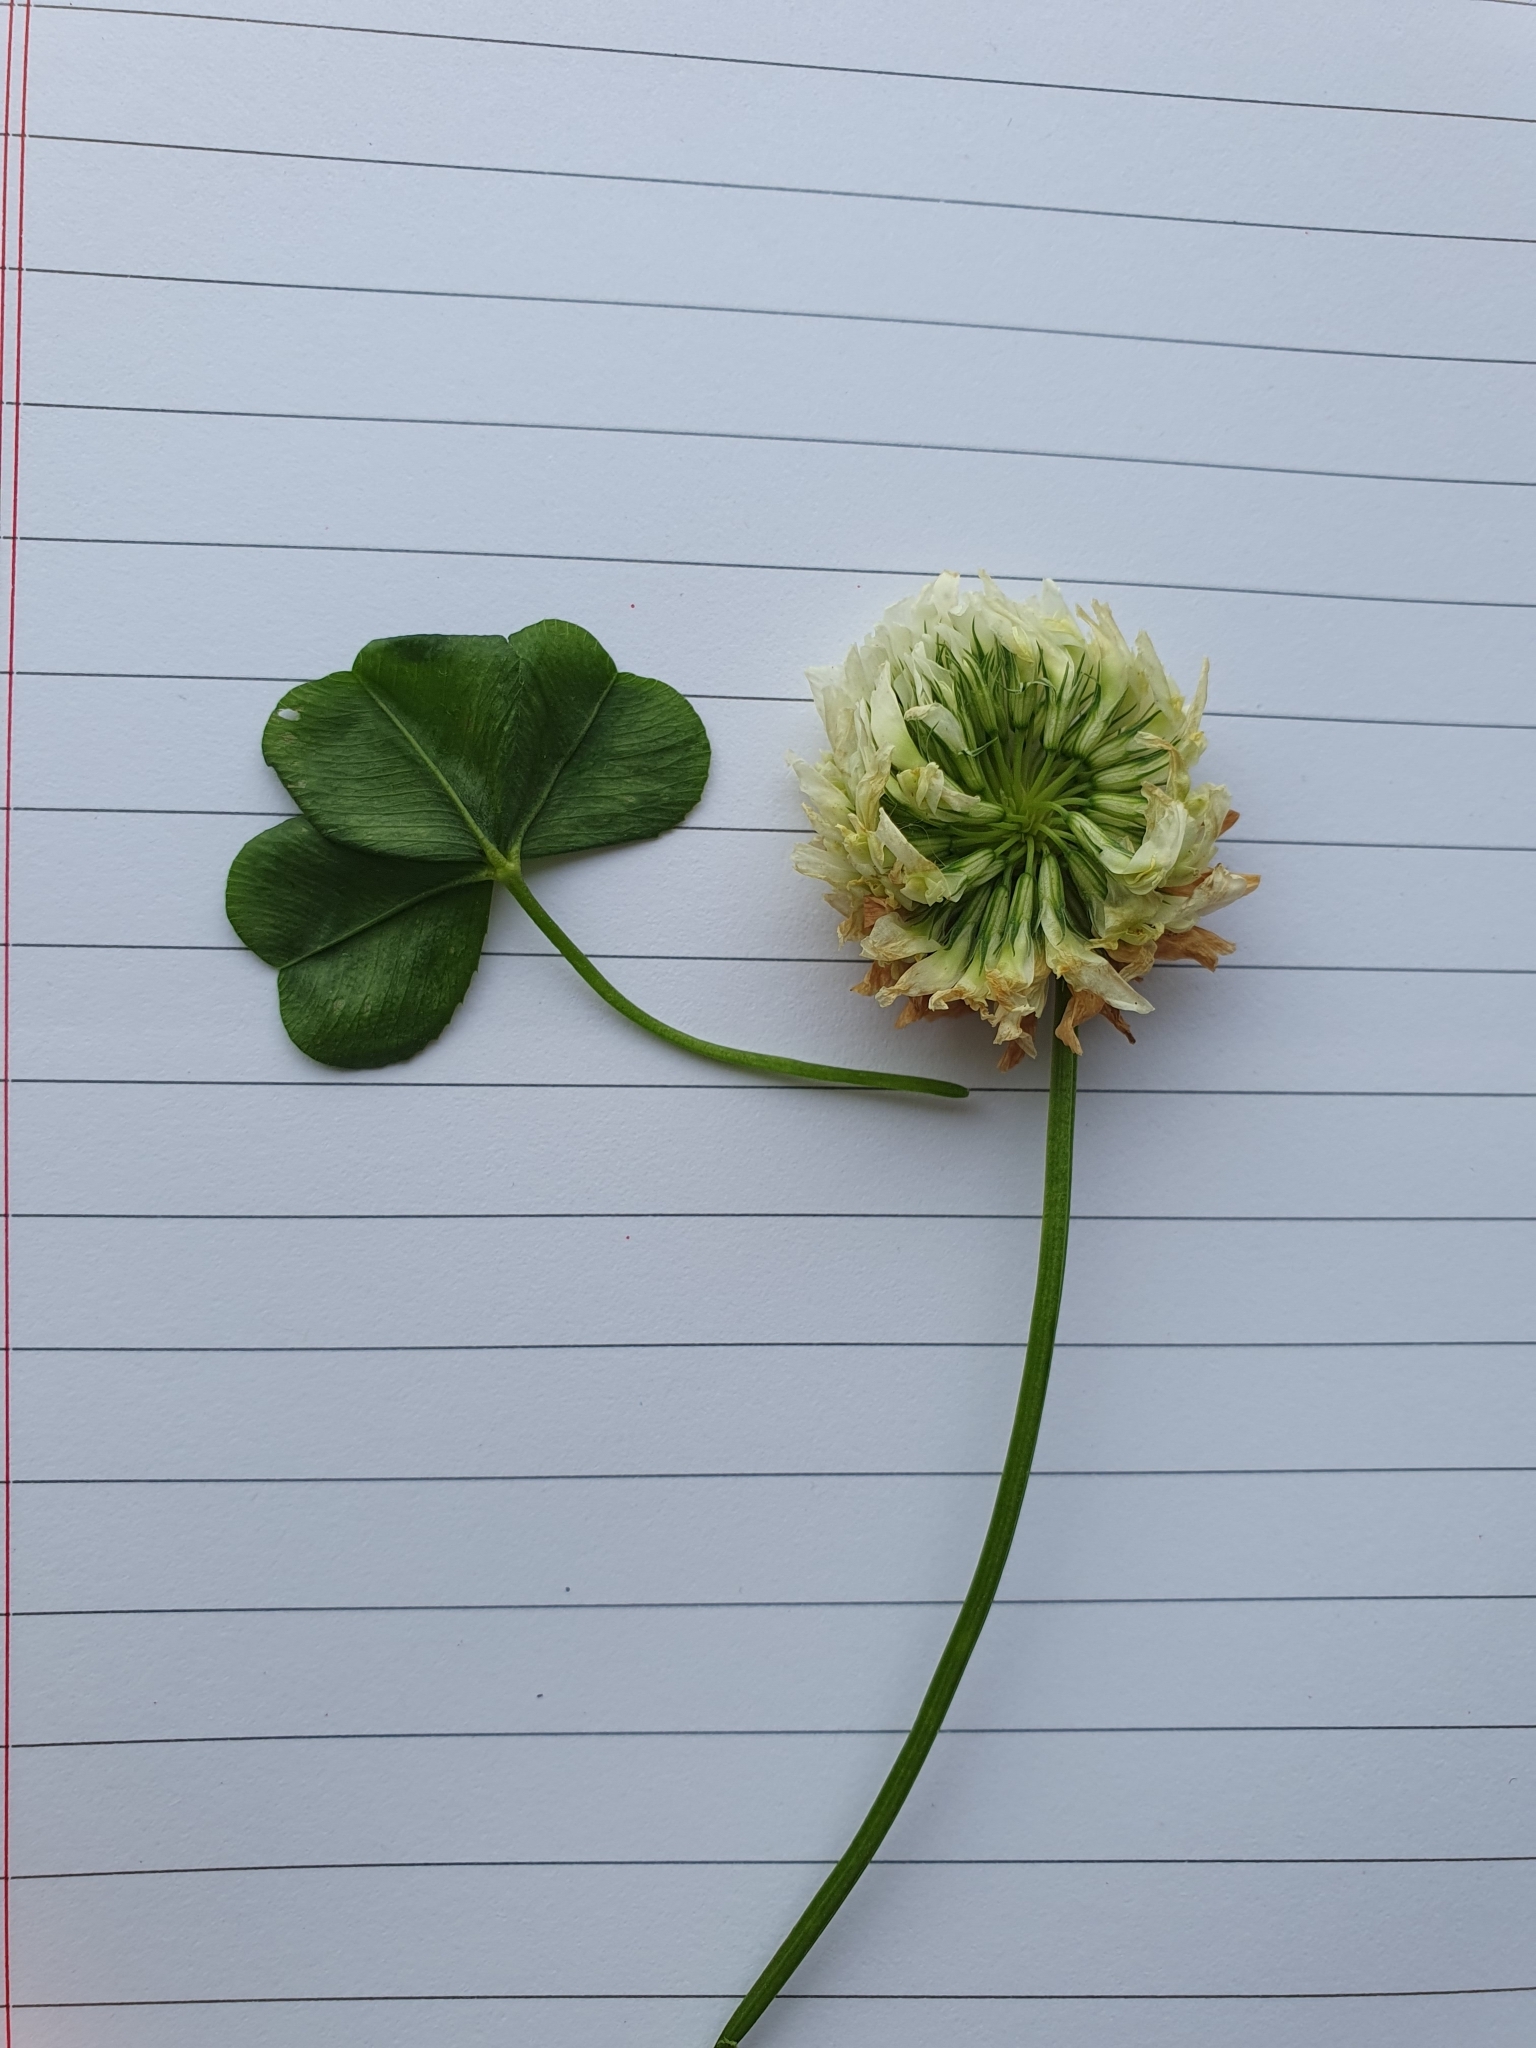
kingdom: Plantae
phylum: Tracheophyta
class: Magnoliopsida
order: Fabales
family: Fabaceae
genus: Trifolium
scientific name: Trifolium repens
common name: White clover
